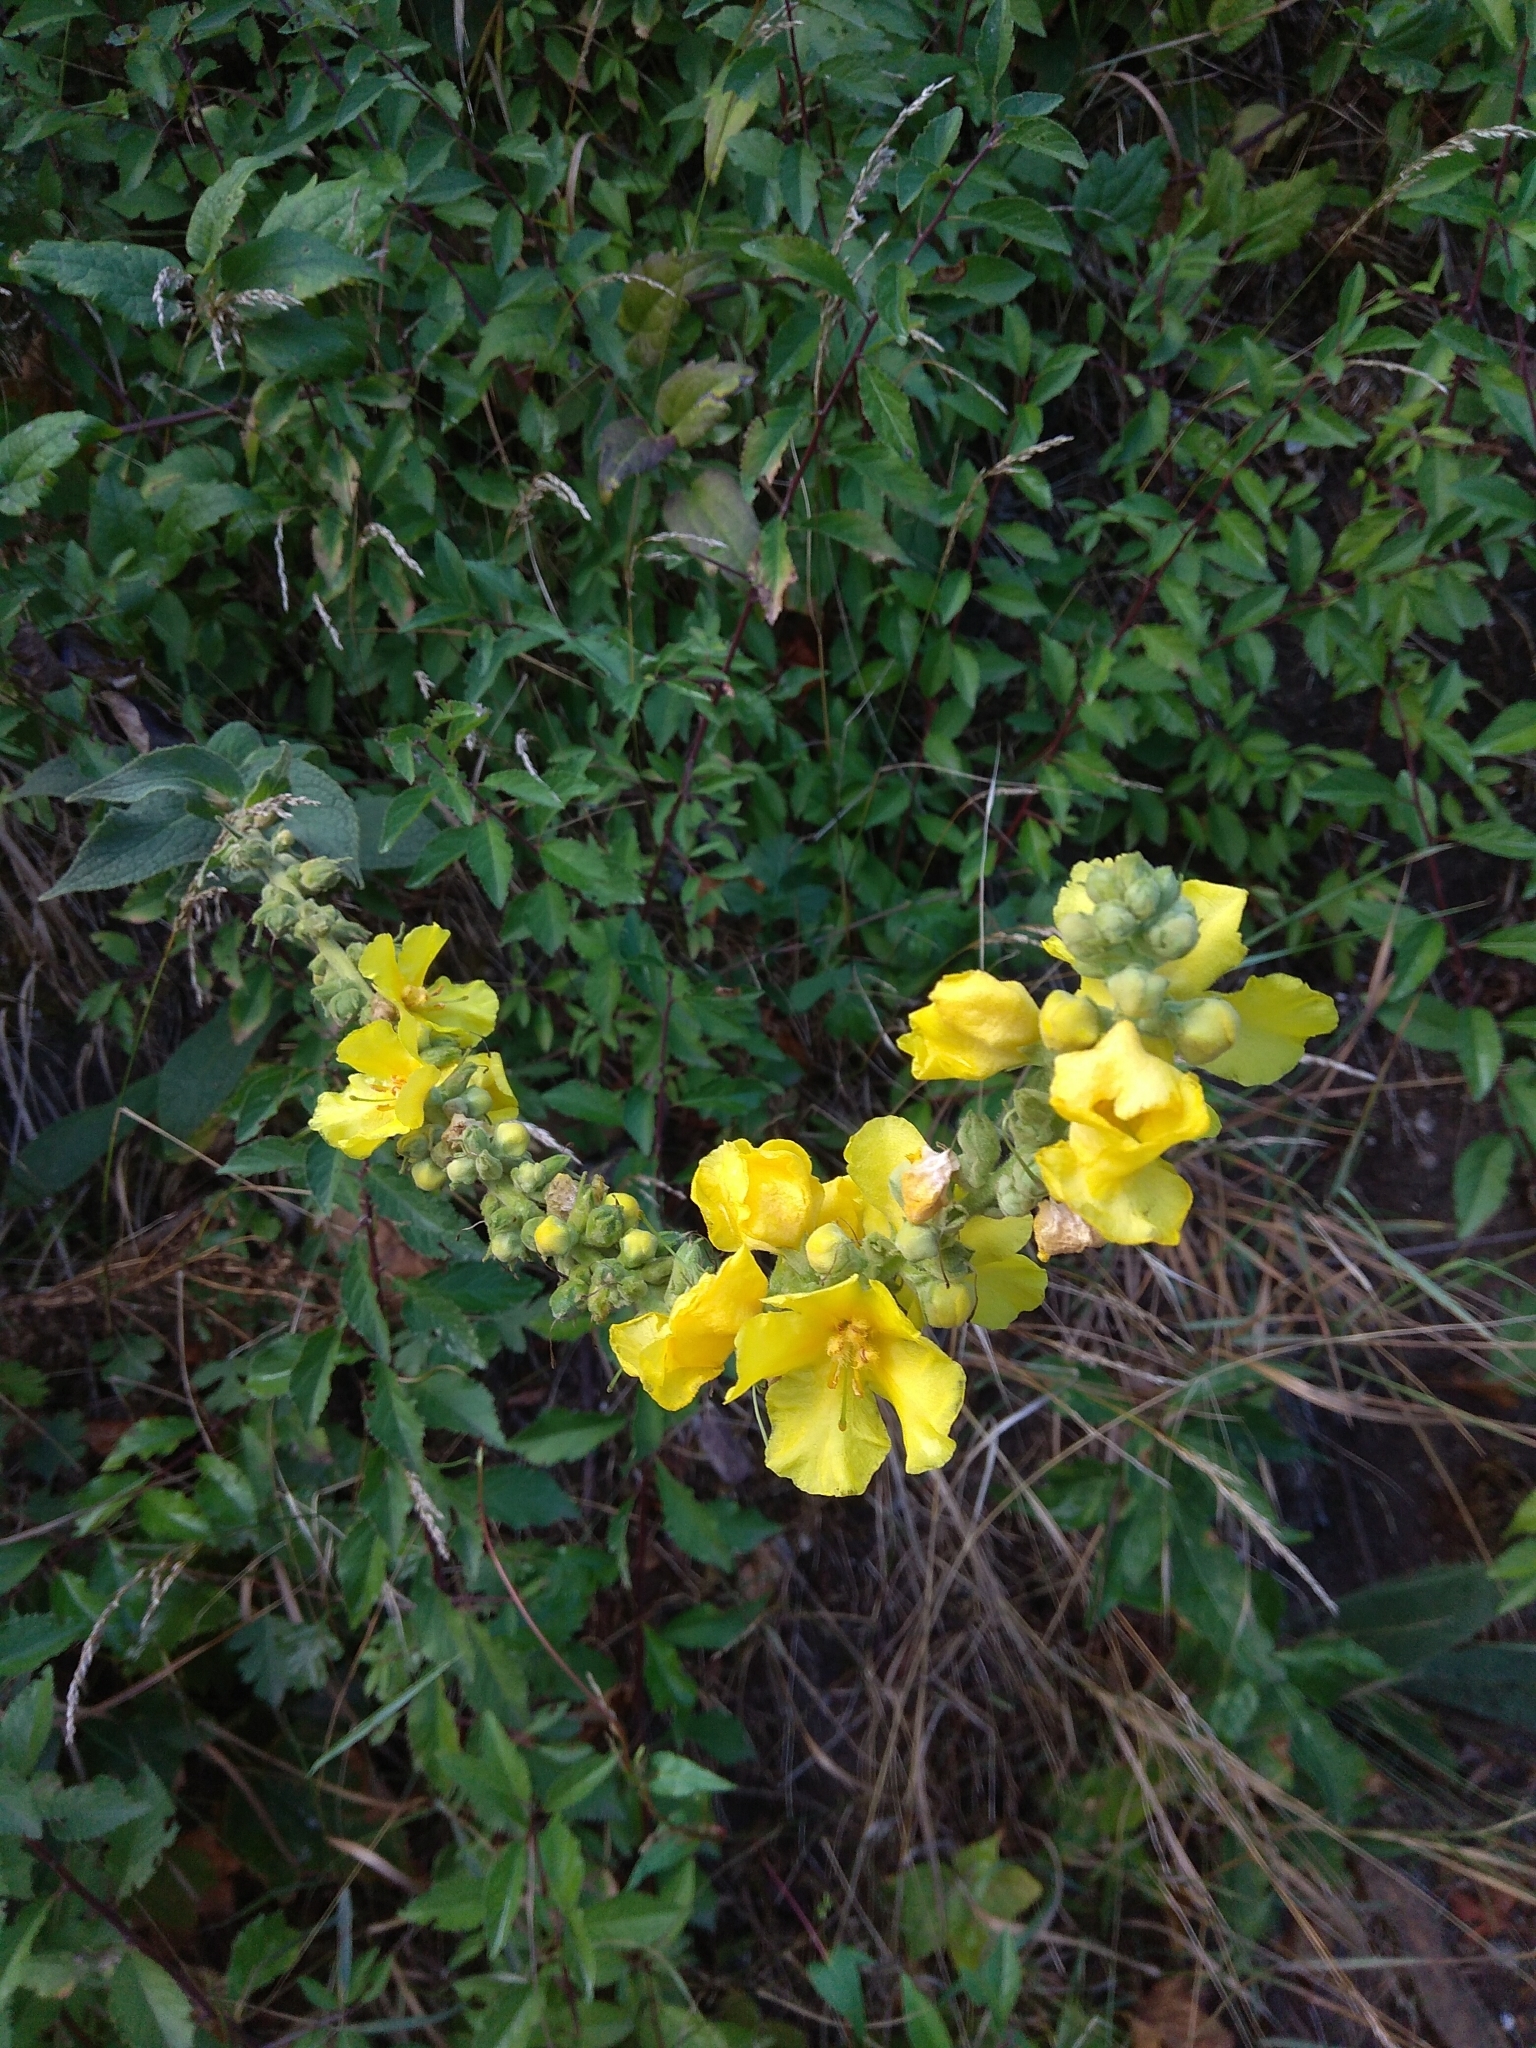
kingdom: Plantae
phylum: Tracheophyta
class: Magnoliopsida
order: Lamiales
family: Scrophulariaceae
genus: Verbascum
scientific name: Verbascum phlomoides
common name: Orange mullein
